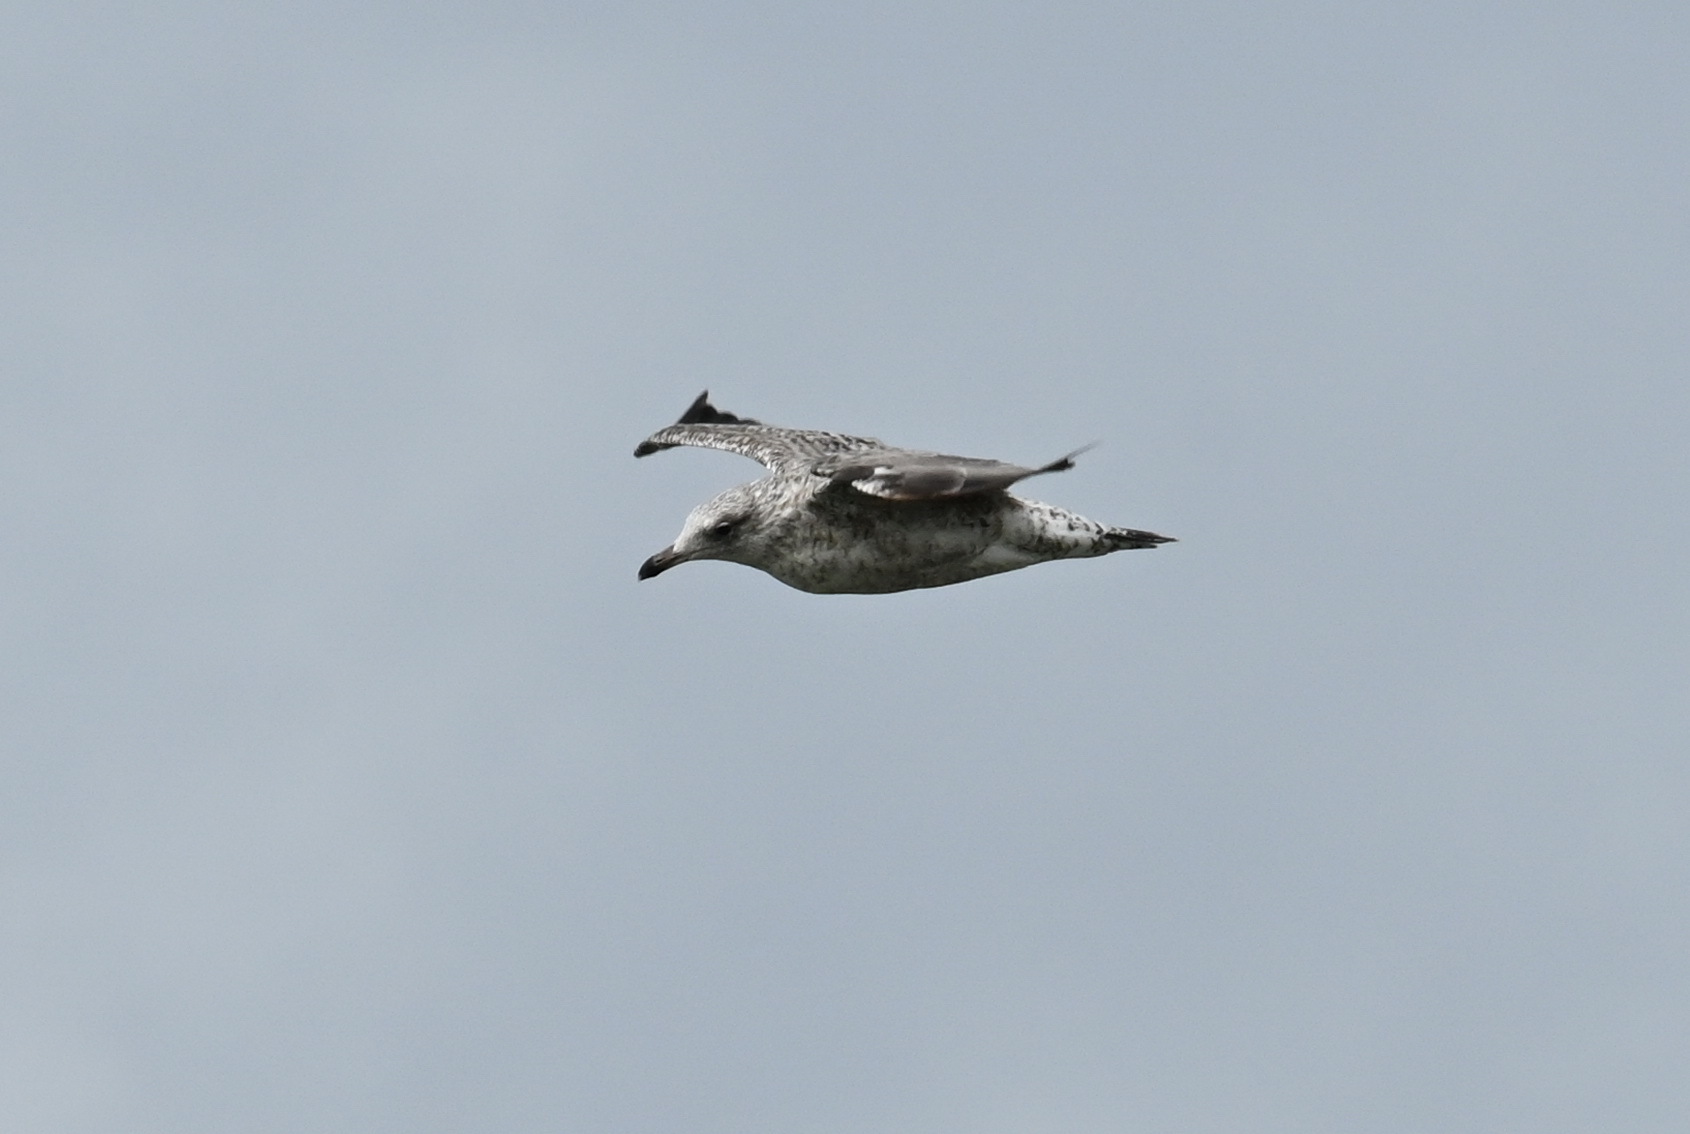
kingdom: Animalia
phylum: Chordata
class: Aves
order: Charadriiformes
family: Laridae
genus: Larus
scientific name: Larus marinus
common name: Great black-backed gull
